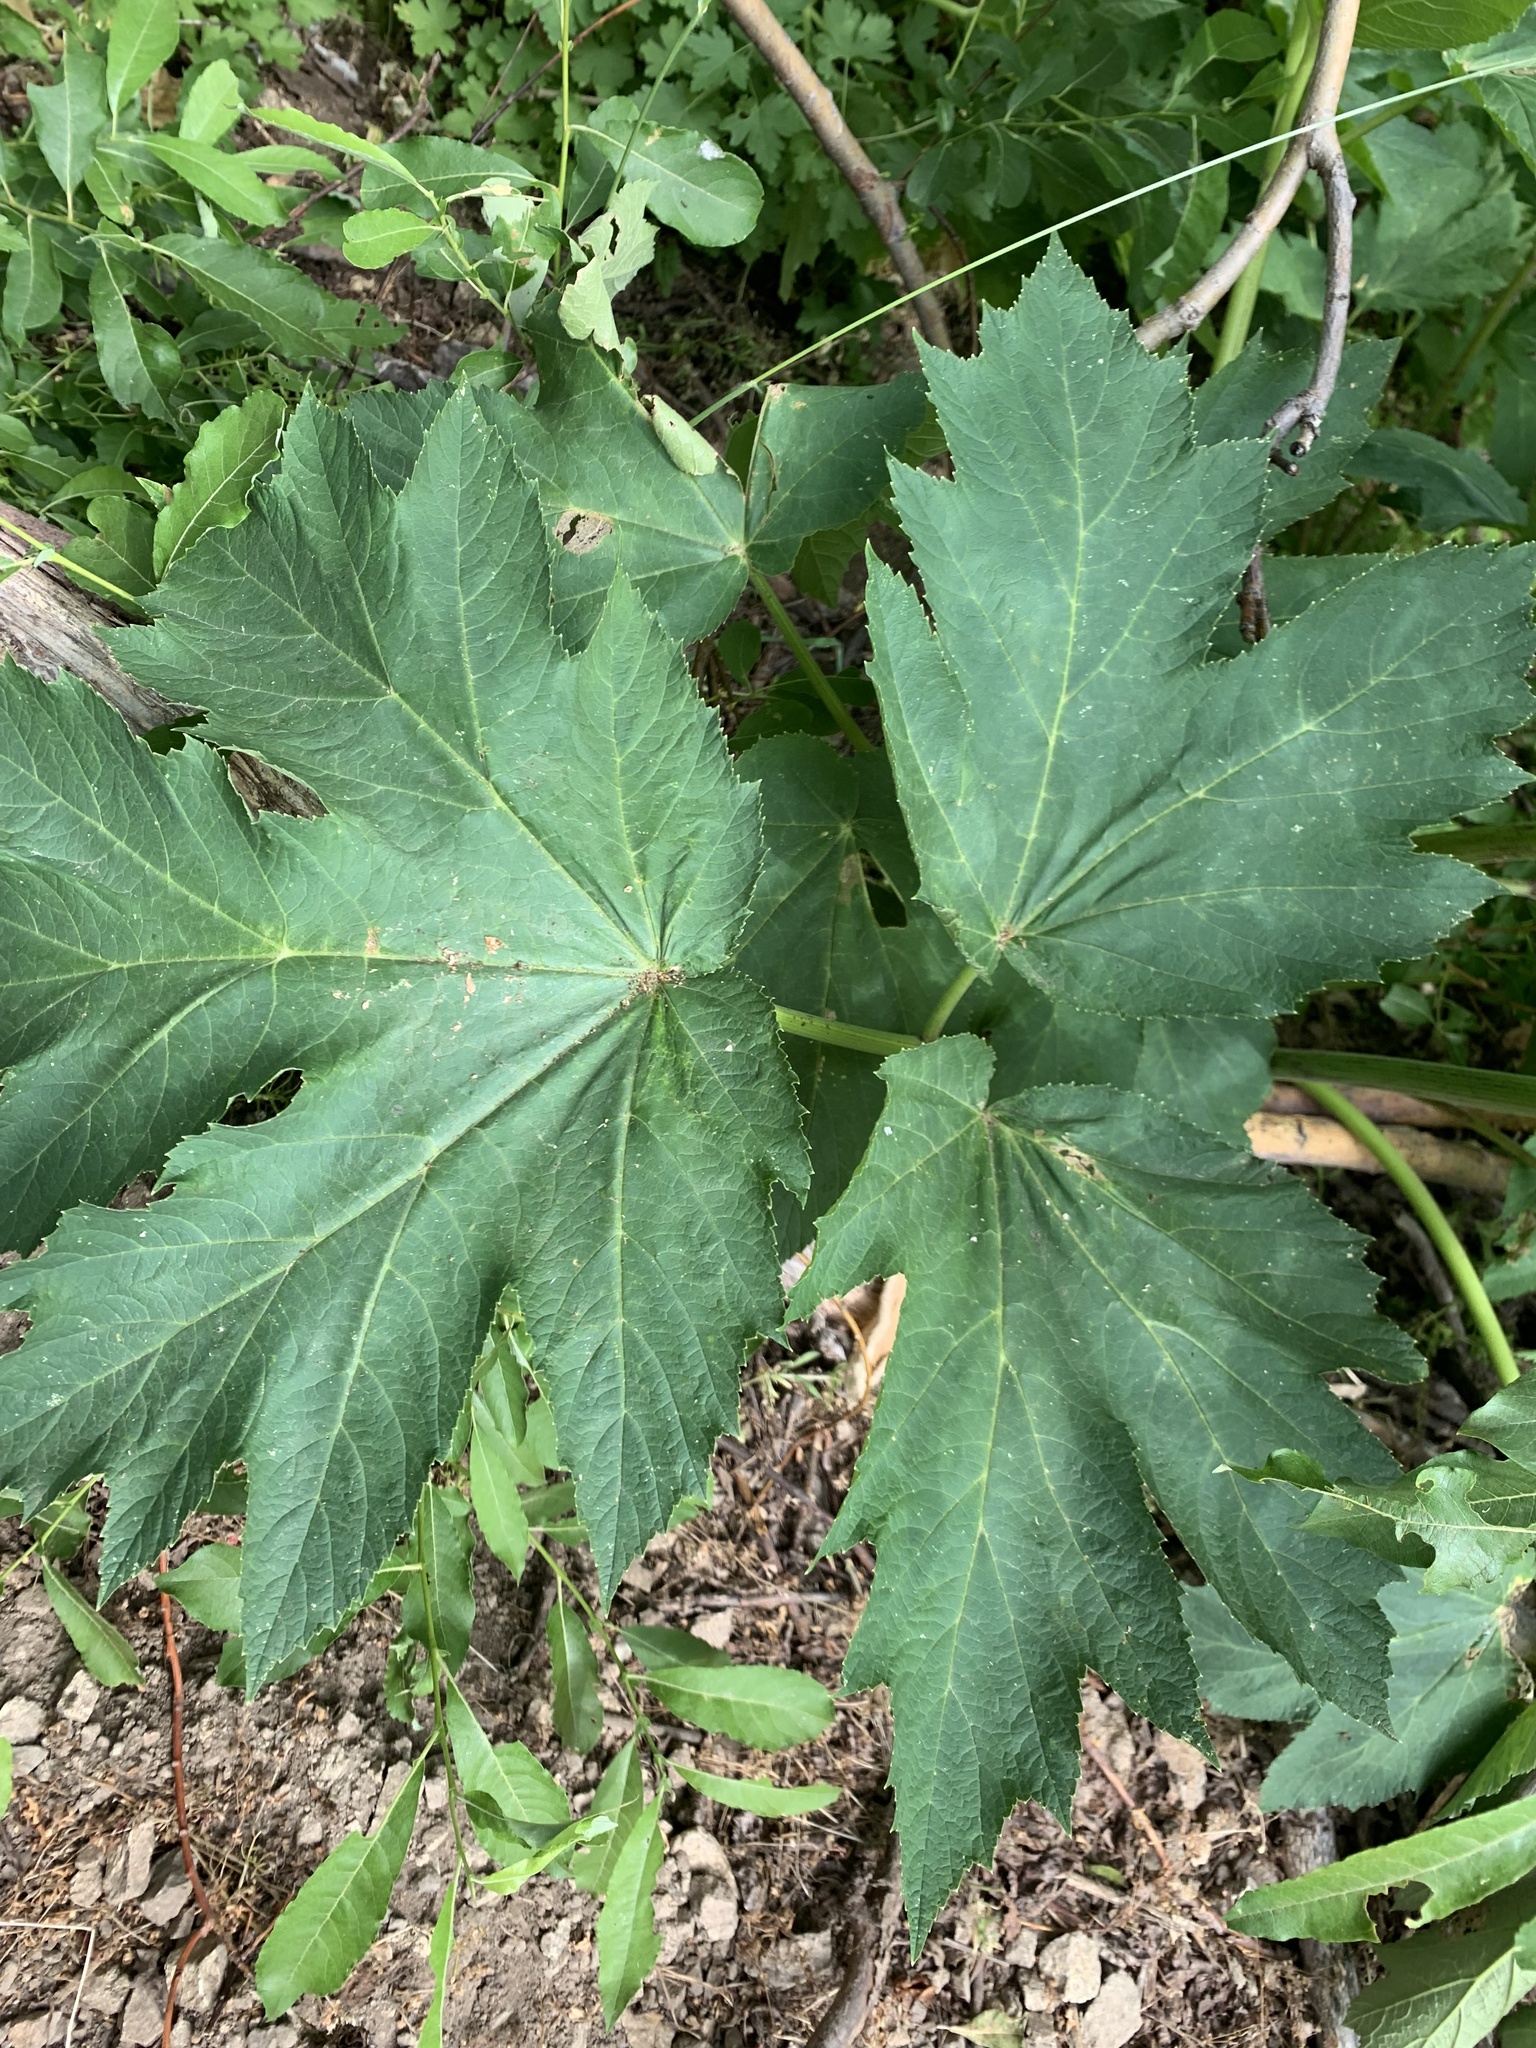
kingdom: Plantae
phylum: Tracheophyta
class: Magnoliopsida
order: Apiales
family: Apiaceae
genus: Heracleum
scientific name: Heracleum maximum
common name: American cow parsnip
